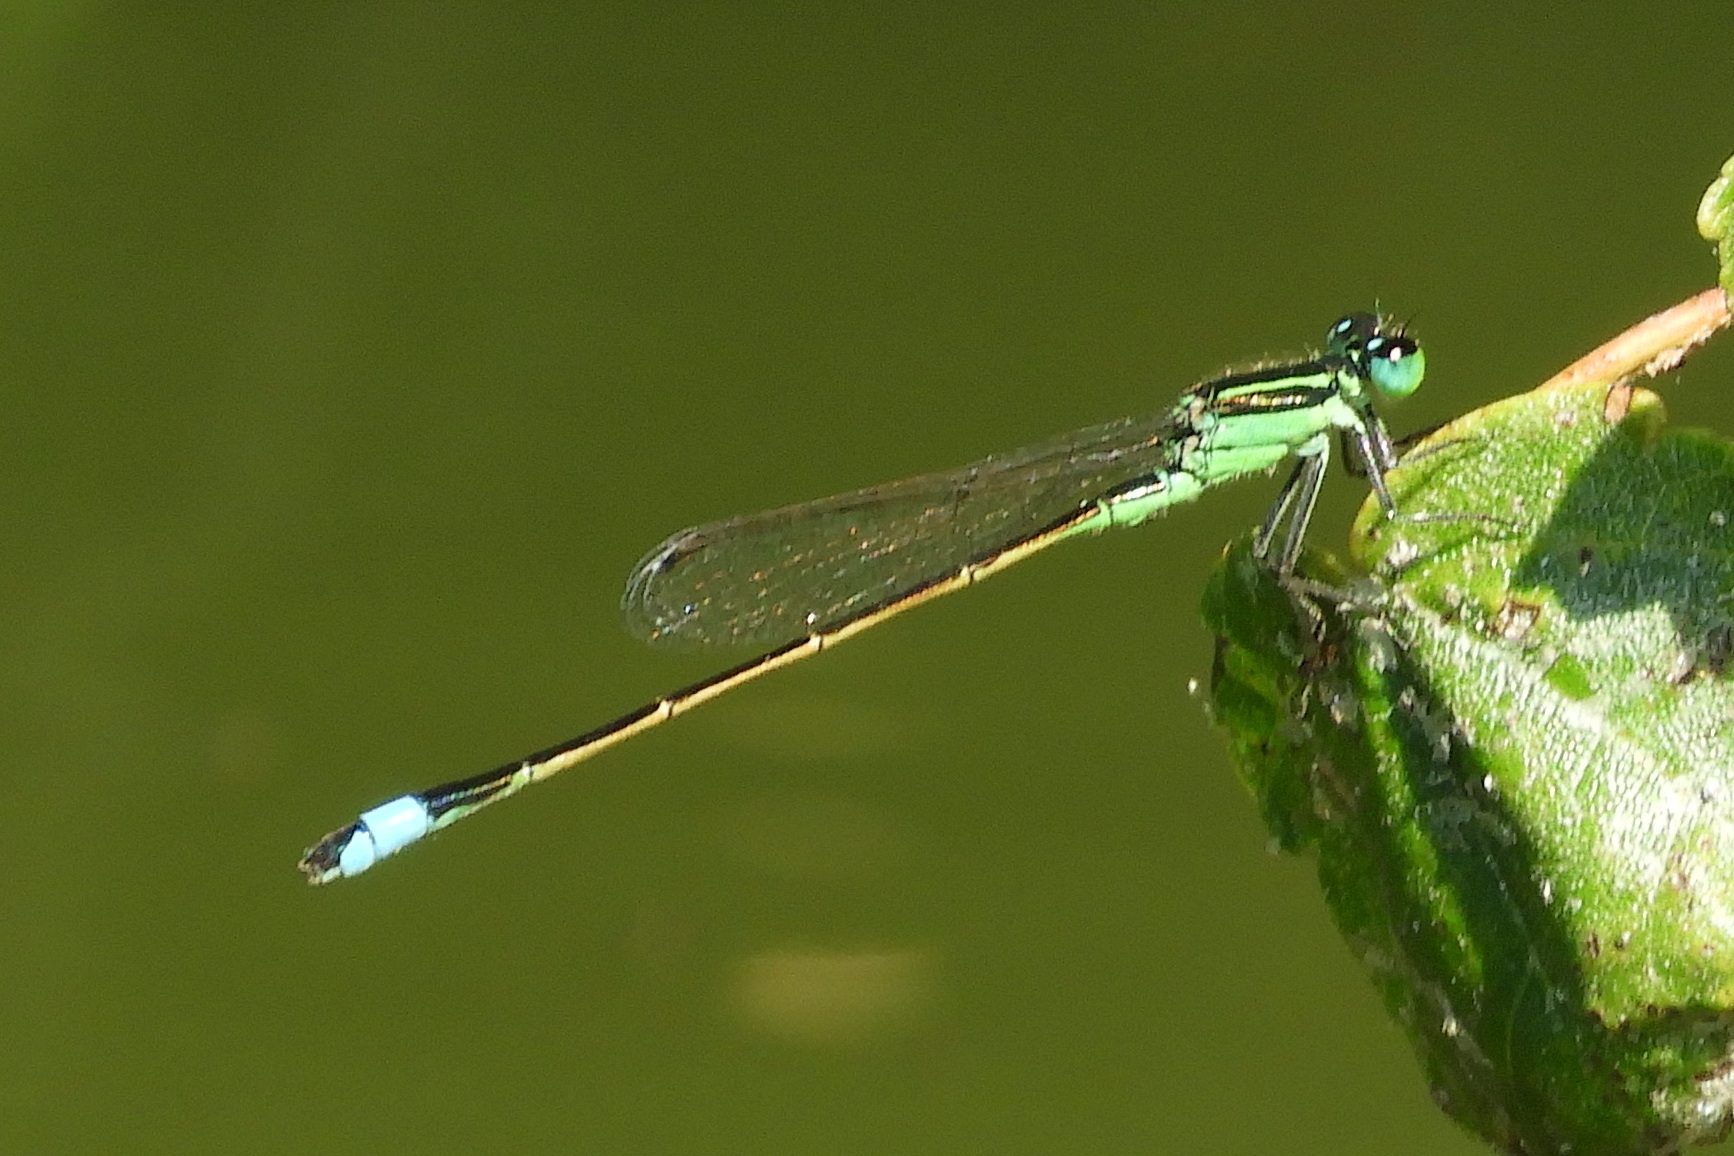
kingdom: Animalia
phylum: Arthropoda
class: Insecta
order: Odonata
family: Coenagrionidae
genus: Ischnura
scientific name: Ischnura ramburii
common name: Rambur's forktail
